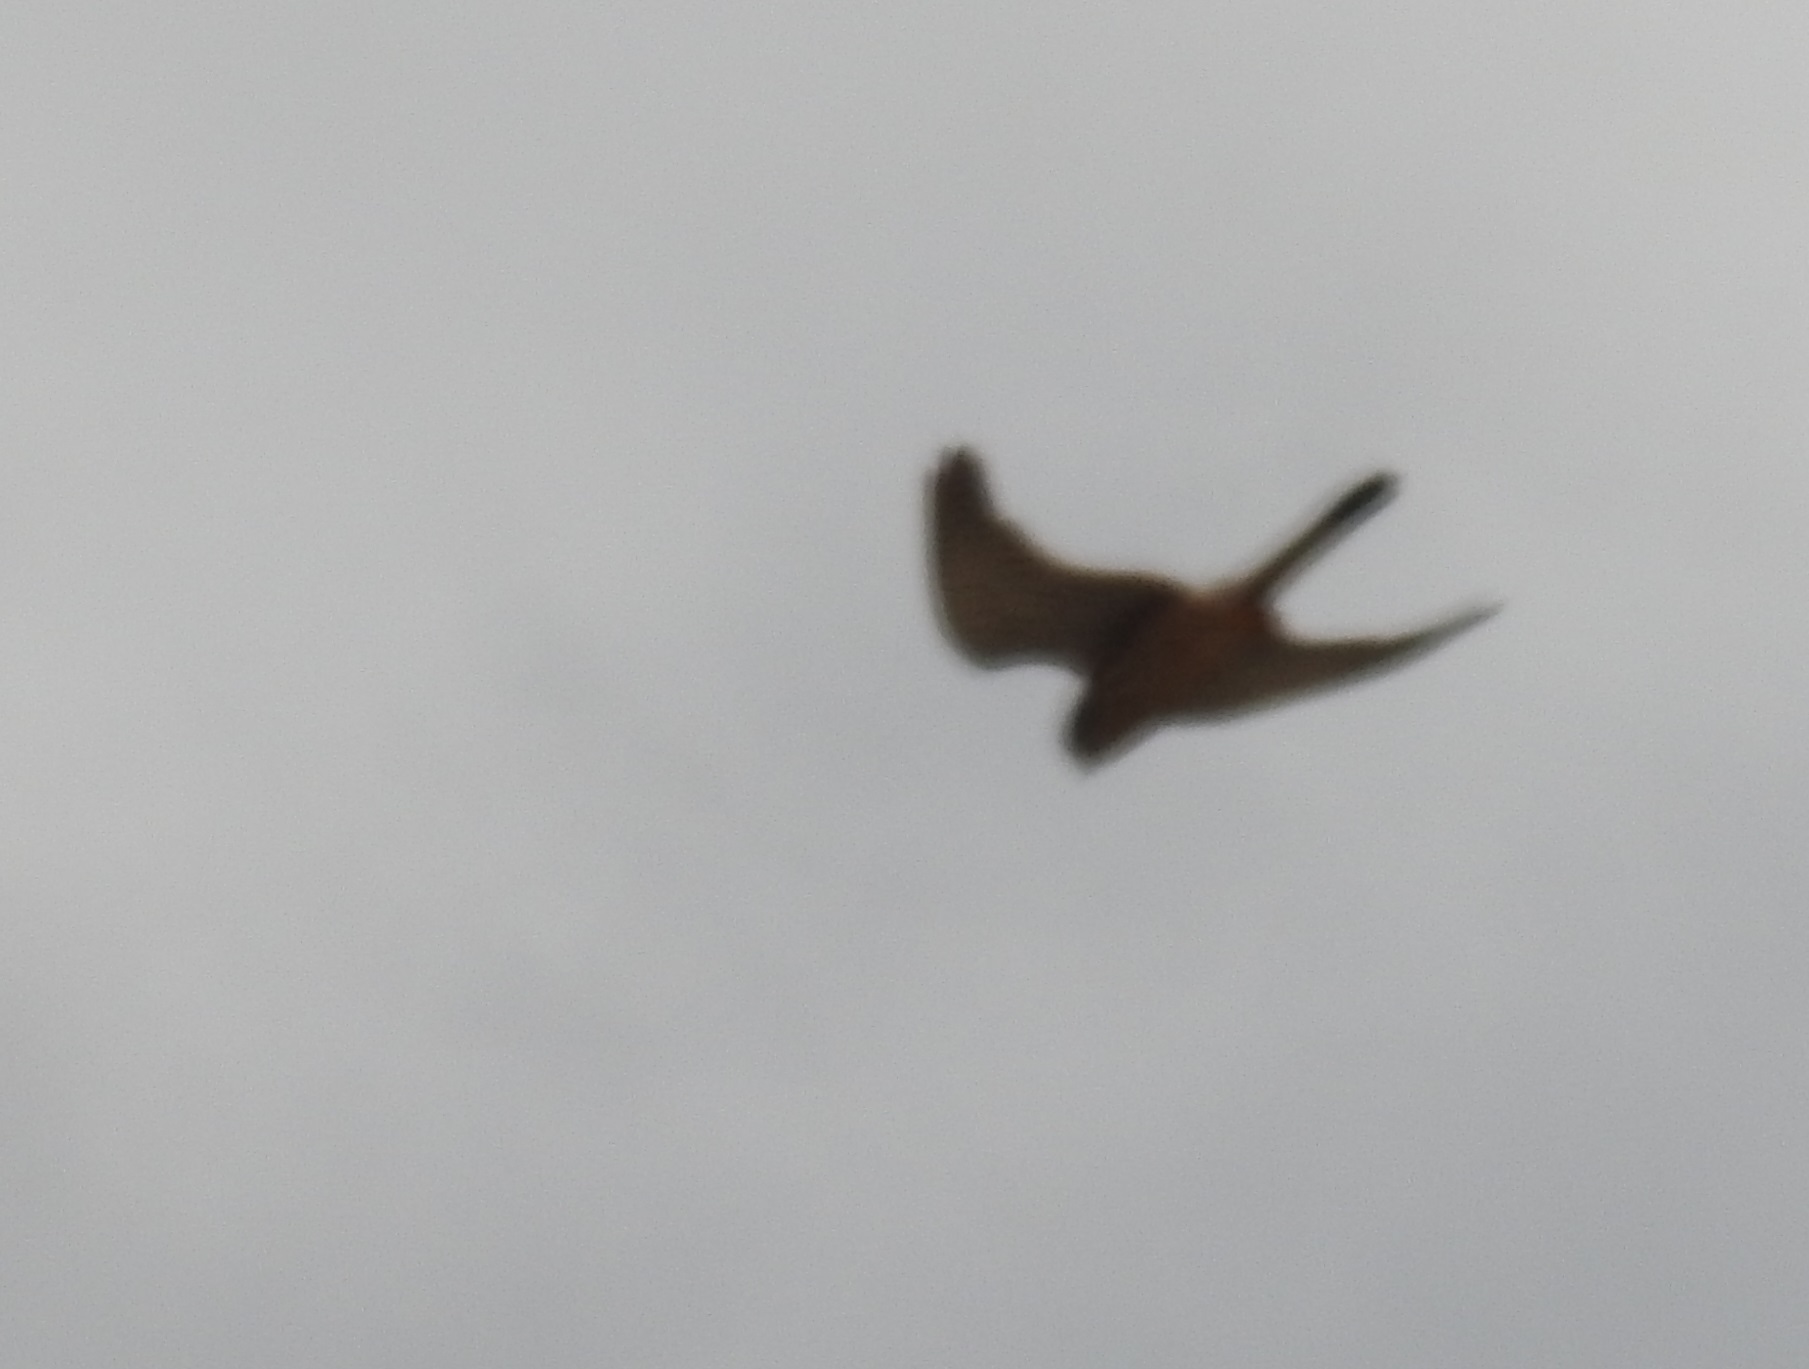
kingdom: Animalia
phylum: Chordata
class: Aves
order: Falconiformes
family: Falconidae
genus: Falco
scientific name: Falco tinnunculus
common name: Common kestrel
